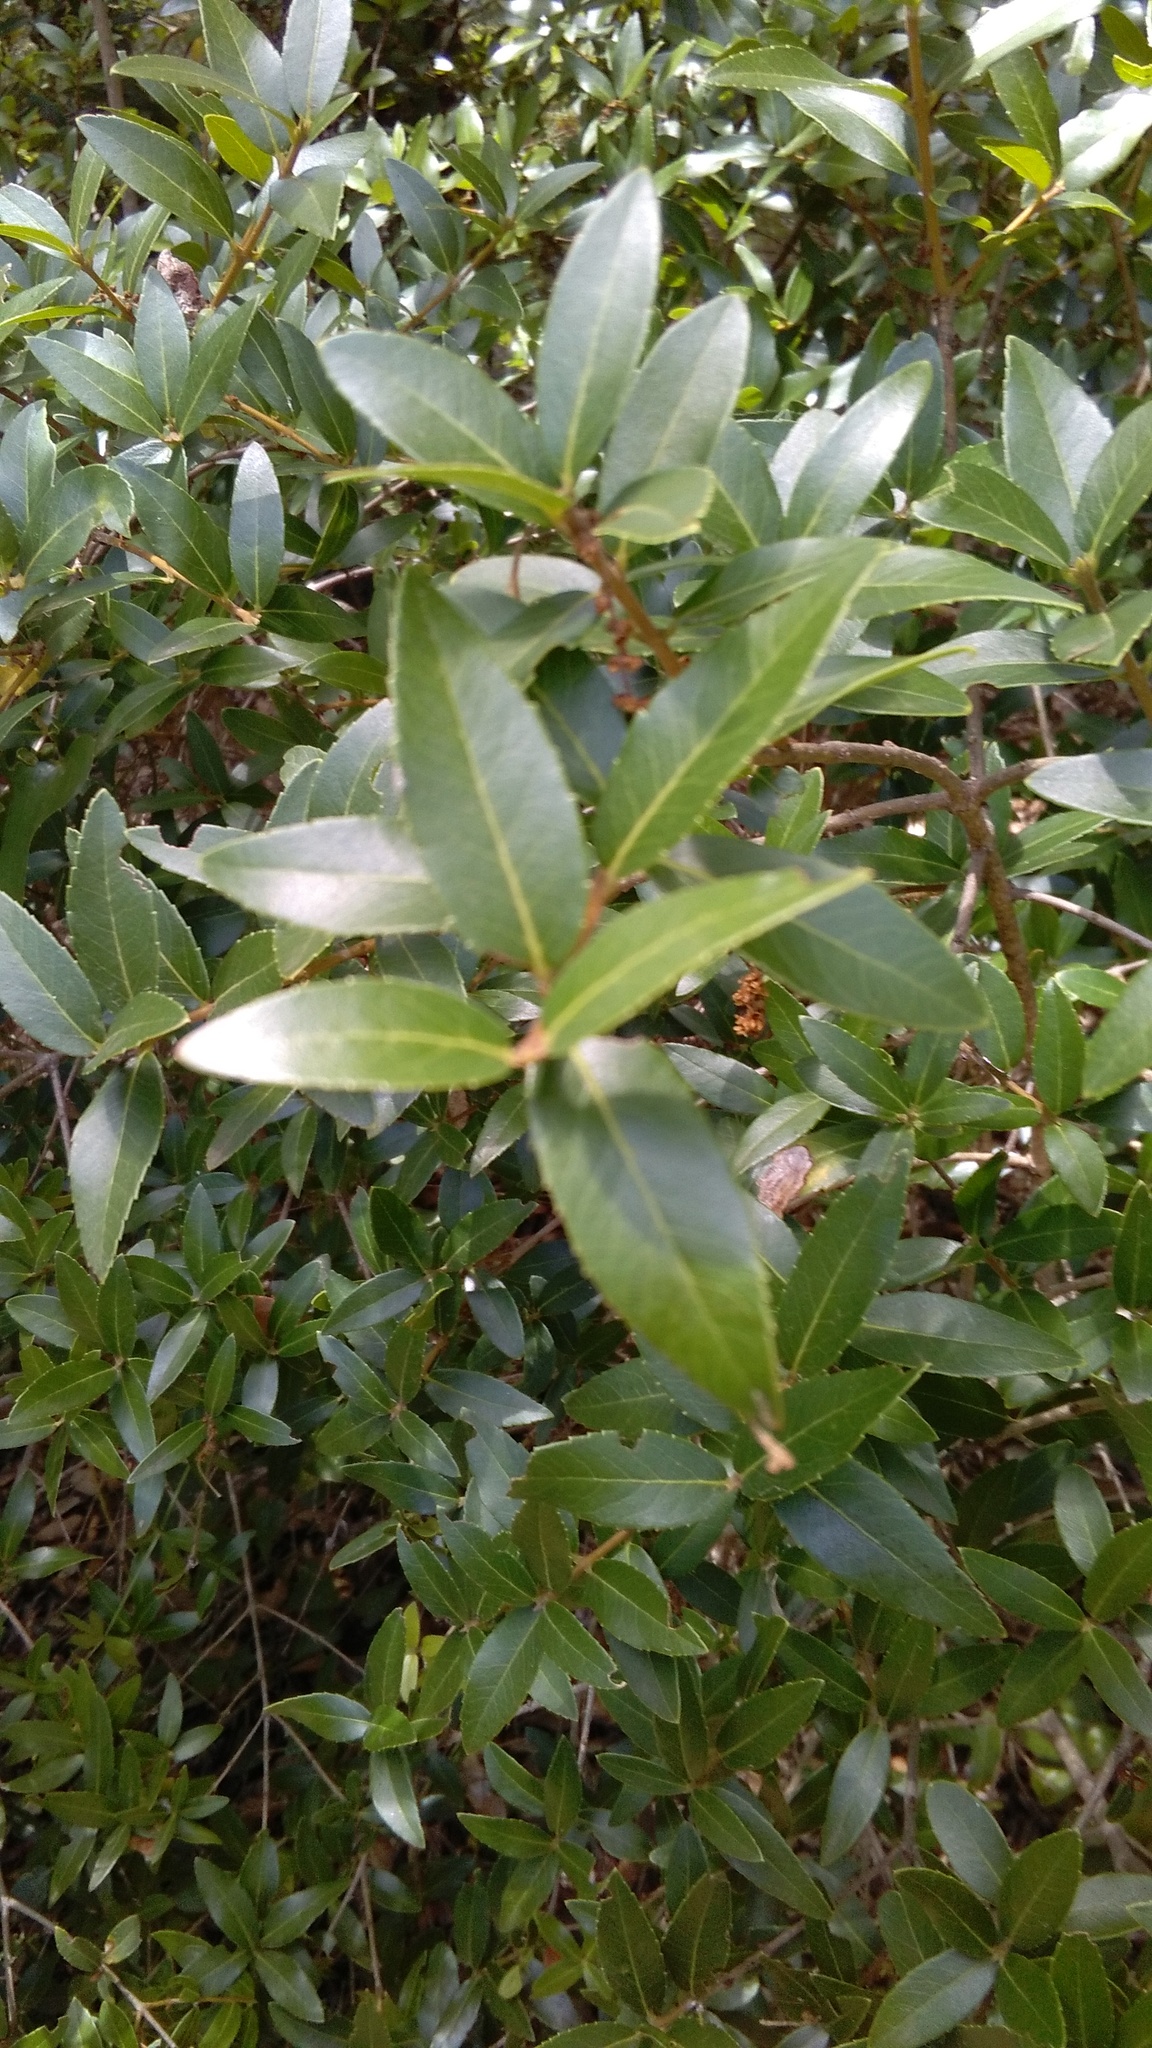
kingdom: Plantae
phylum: Tracheophyta
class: Magnoliopsida
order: Laurales
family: Lauraceae
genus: Laurus
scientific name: Laurus nobilis
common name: Bay
